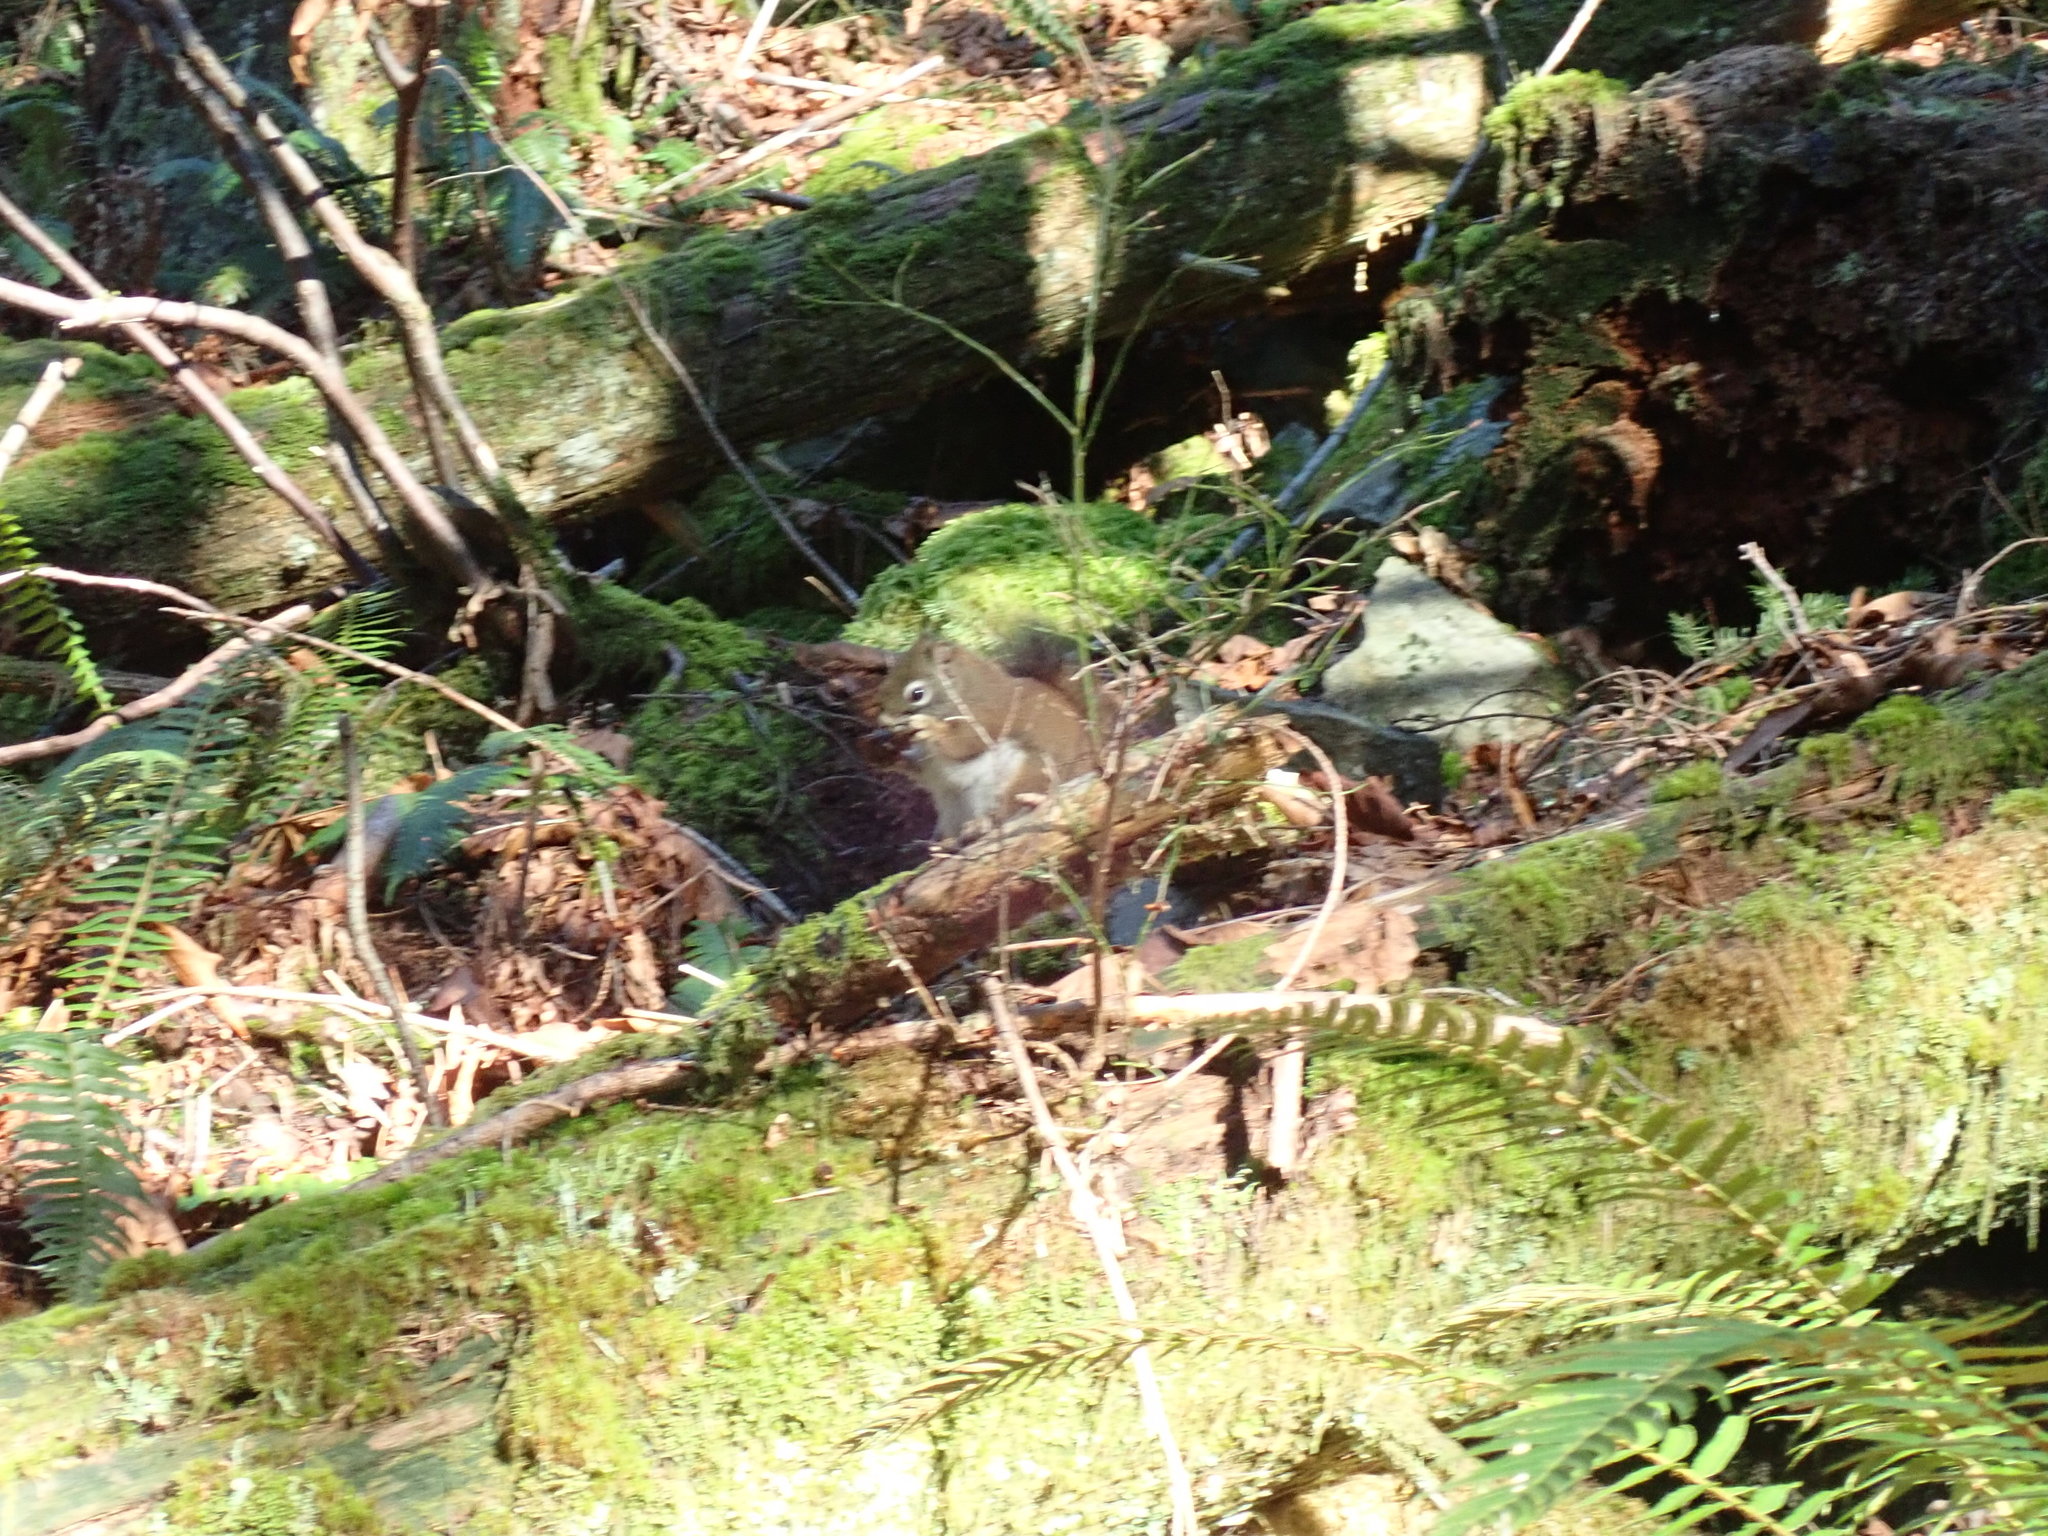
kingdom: Animalia
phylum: Chordata
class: Mammalia
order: Rodentia
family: Sciuridae
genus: Tamiasciurus
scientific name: Tamiasciurus hudsonicus
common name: Red squirrel
